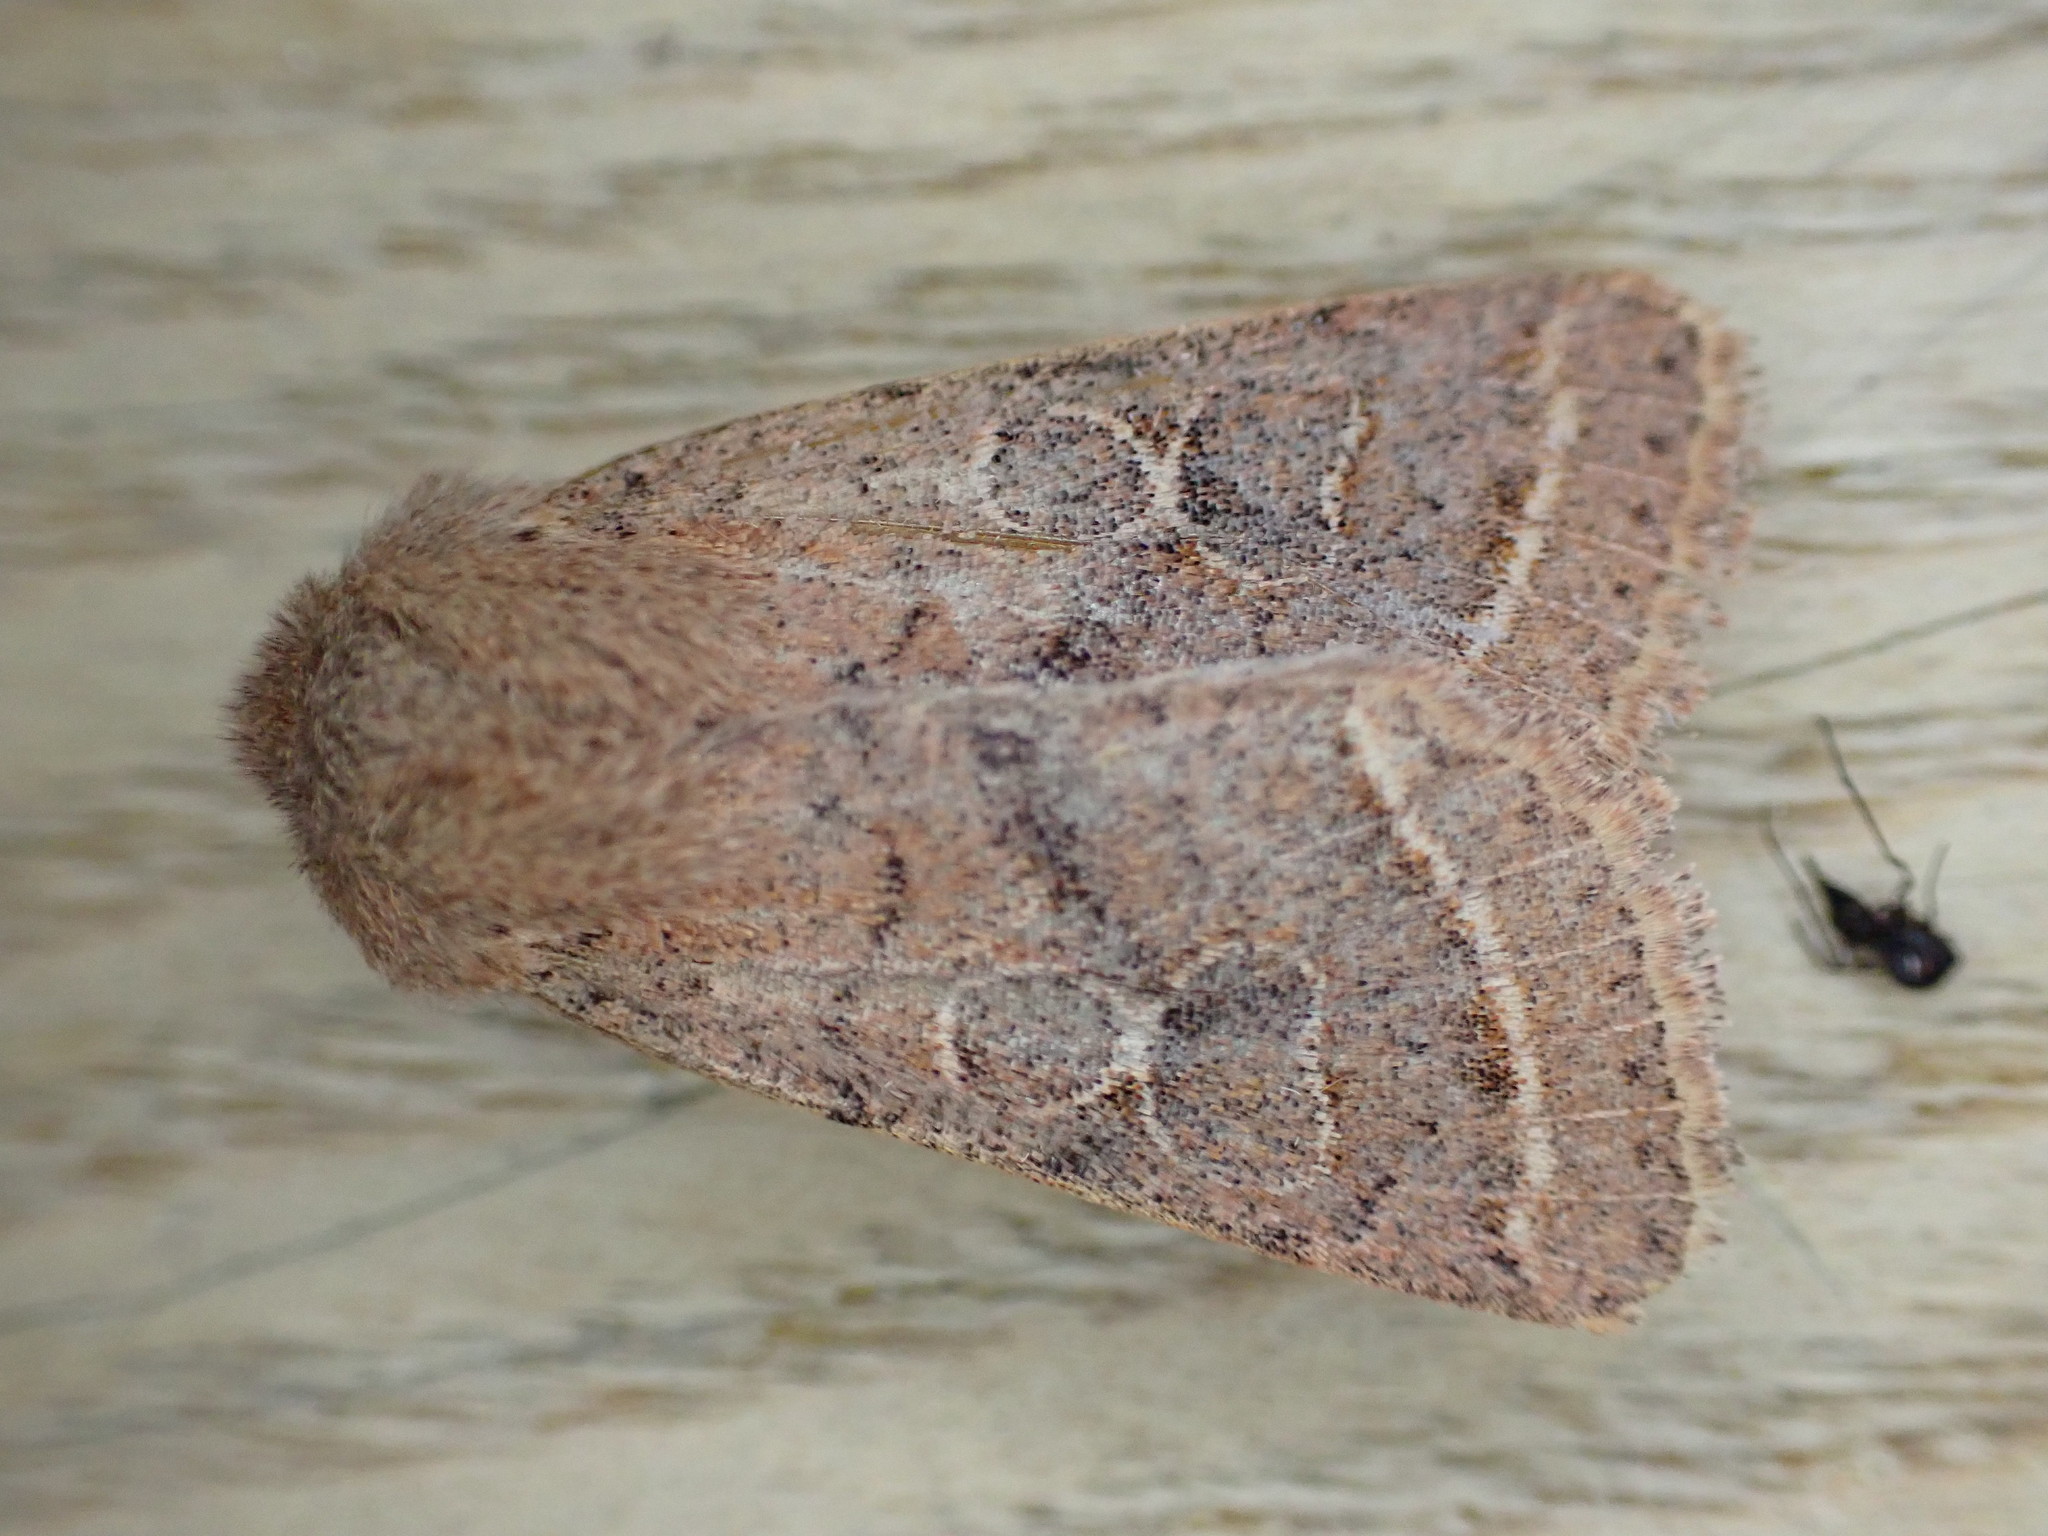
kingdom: Animalia
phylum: Arthropoda
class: Insecta
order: Lepidoptera
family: Noctuidae
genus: Orthosia
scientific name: Orthosia cerasi
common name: Common quaker
